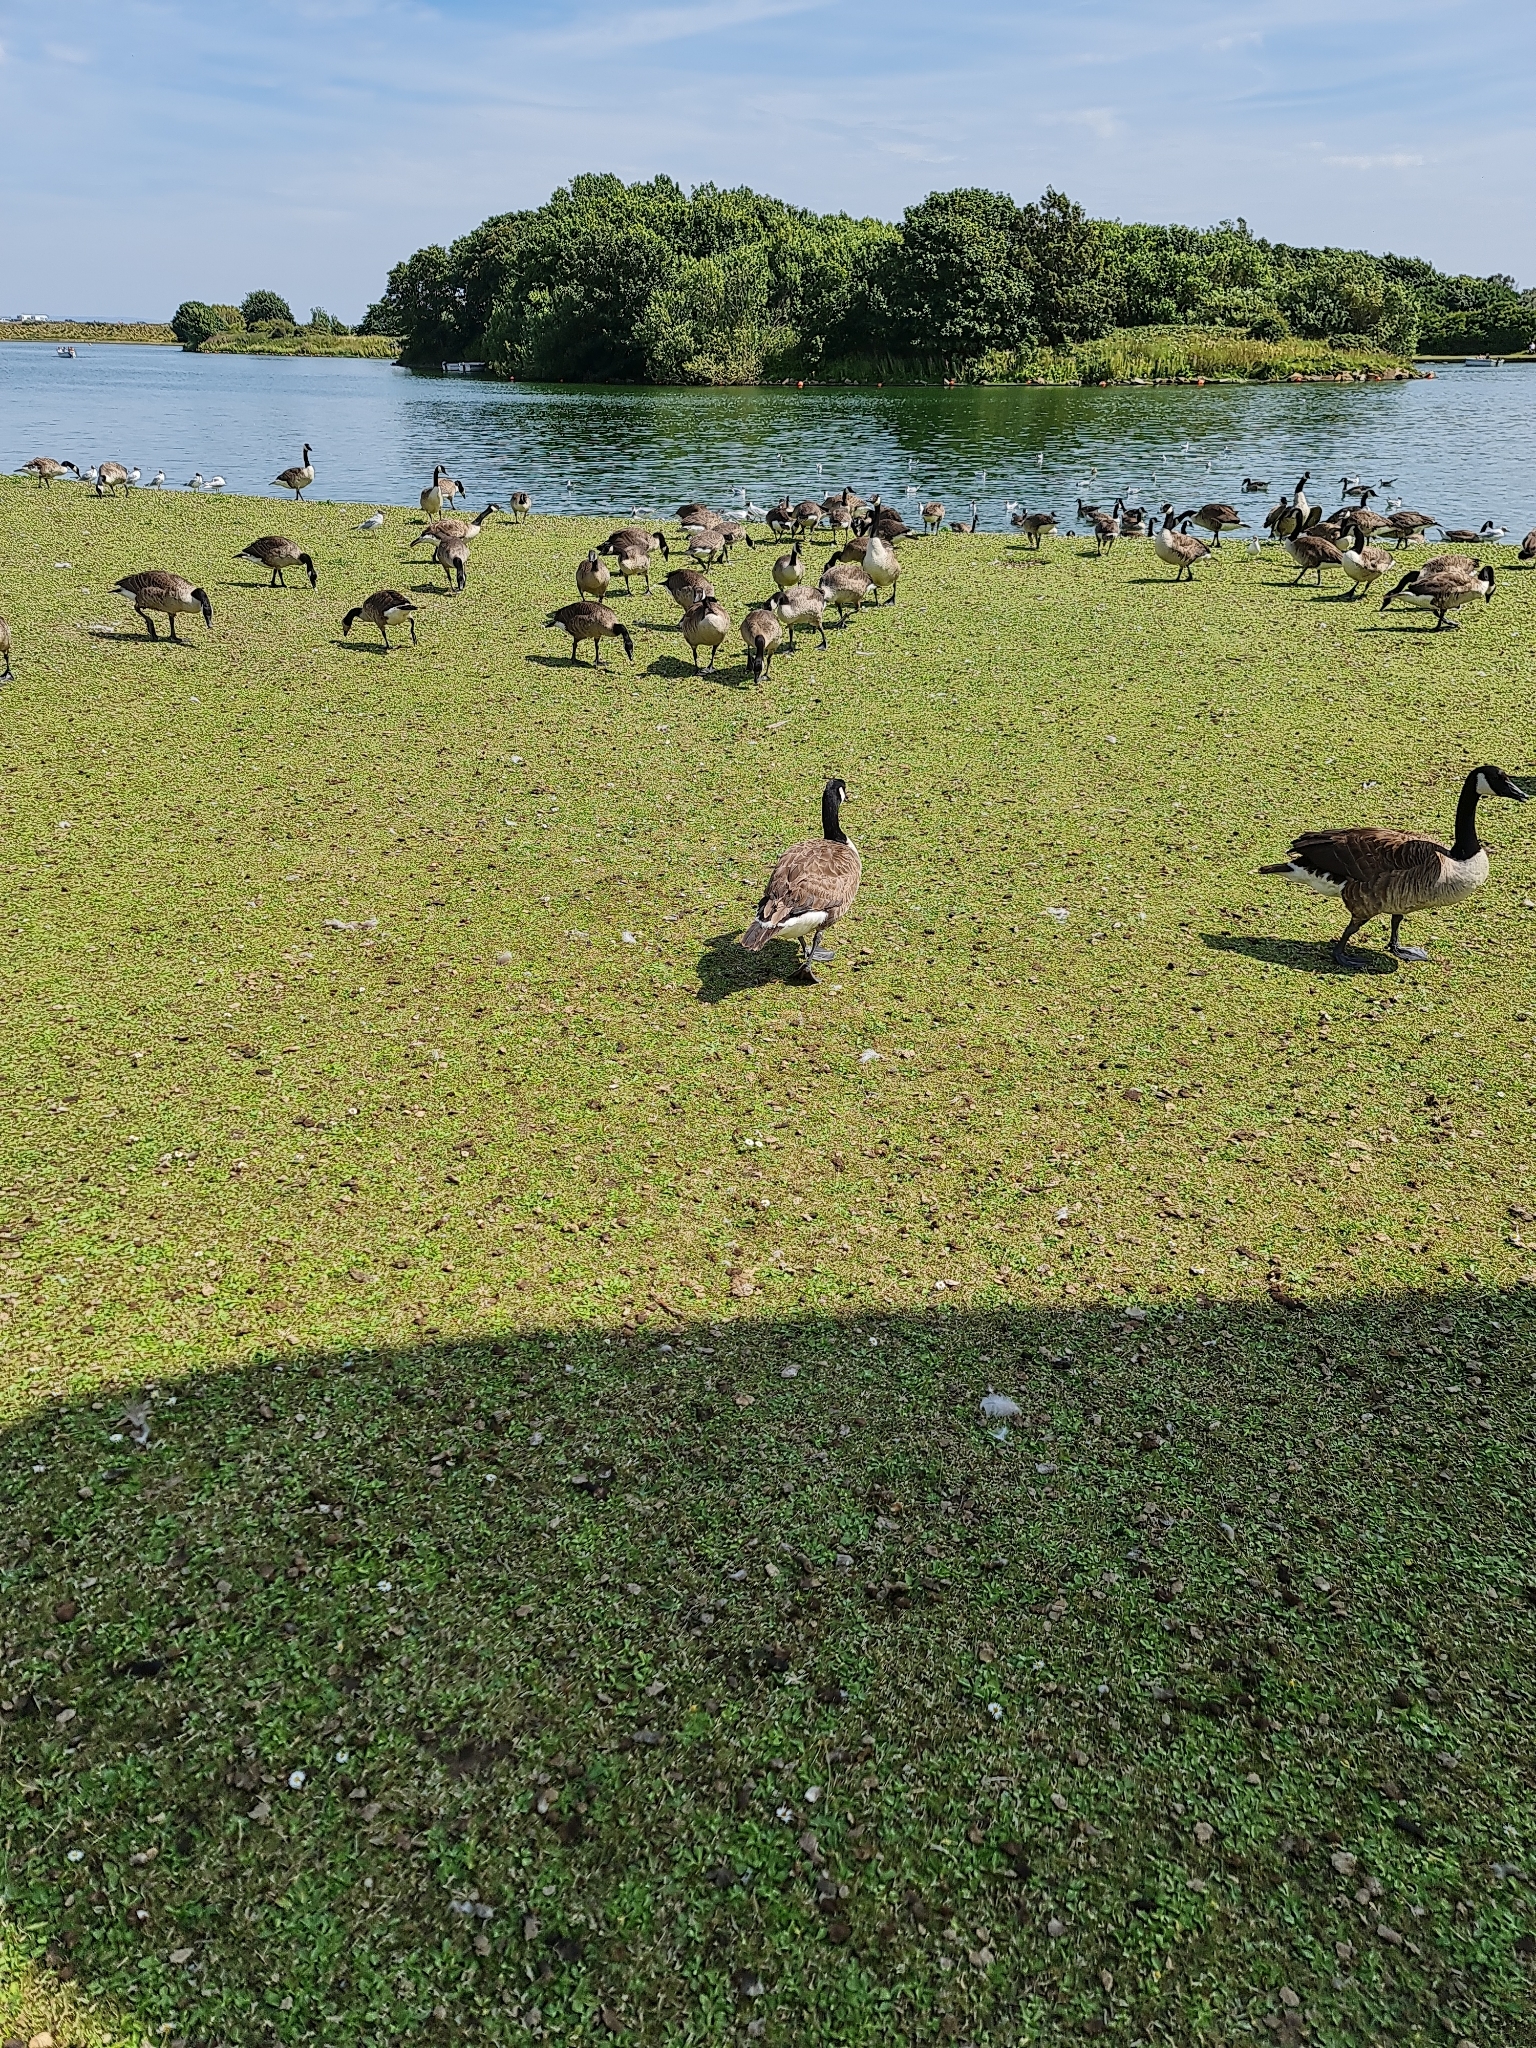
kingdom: Animalia
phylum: Chordata
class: Aves
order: Anseriformes
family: Anatidae
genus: Branta
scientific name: Branta canadensis
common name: Canada goose
